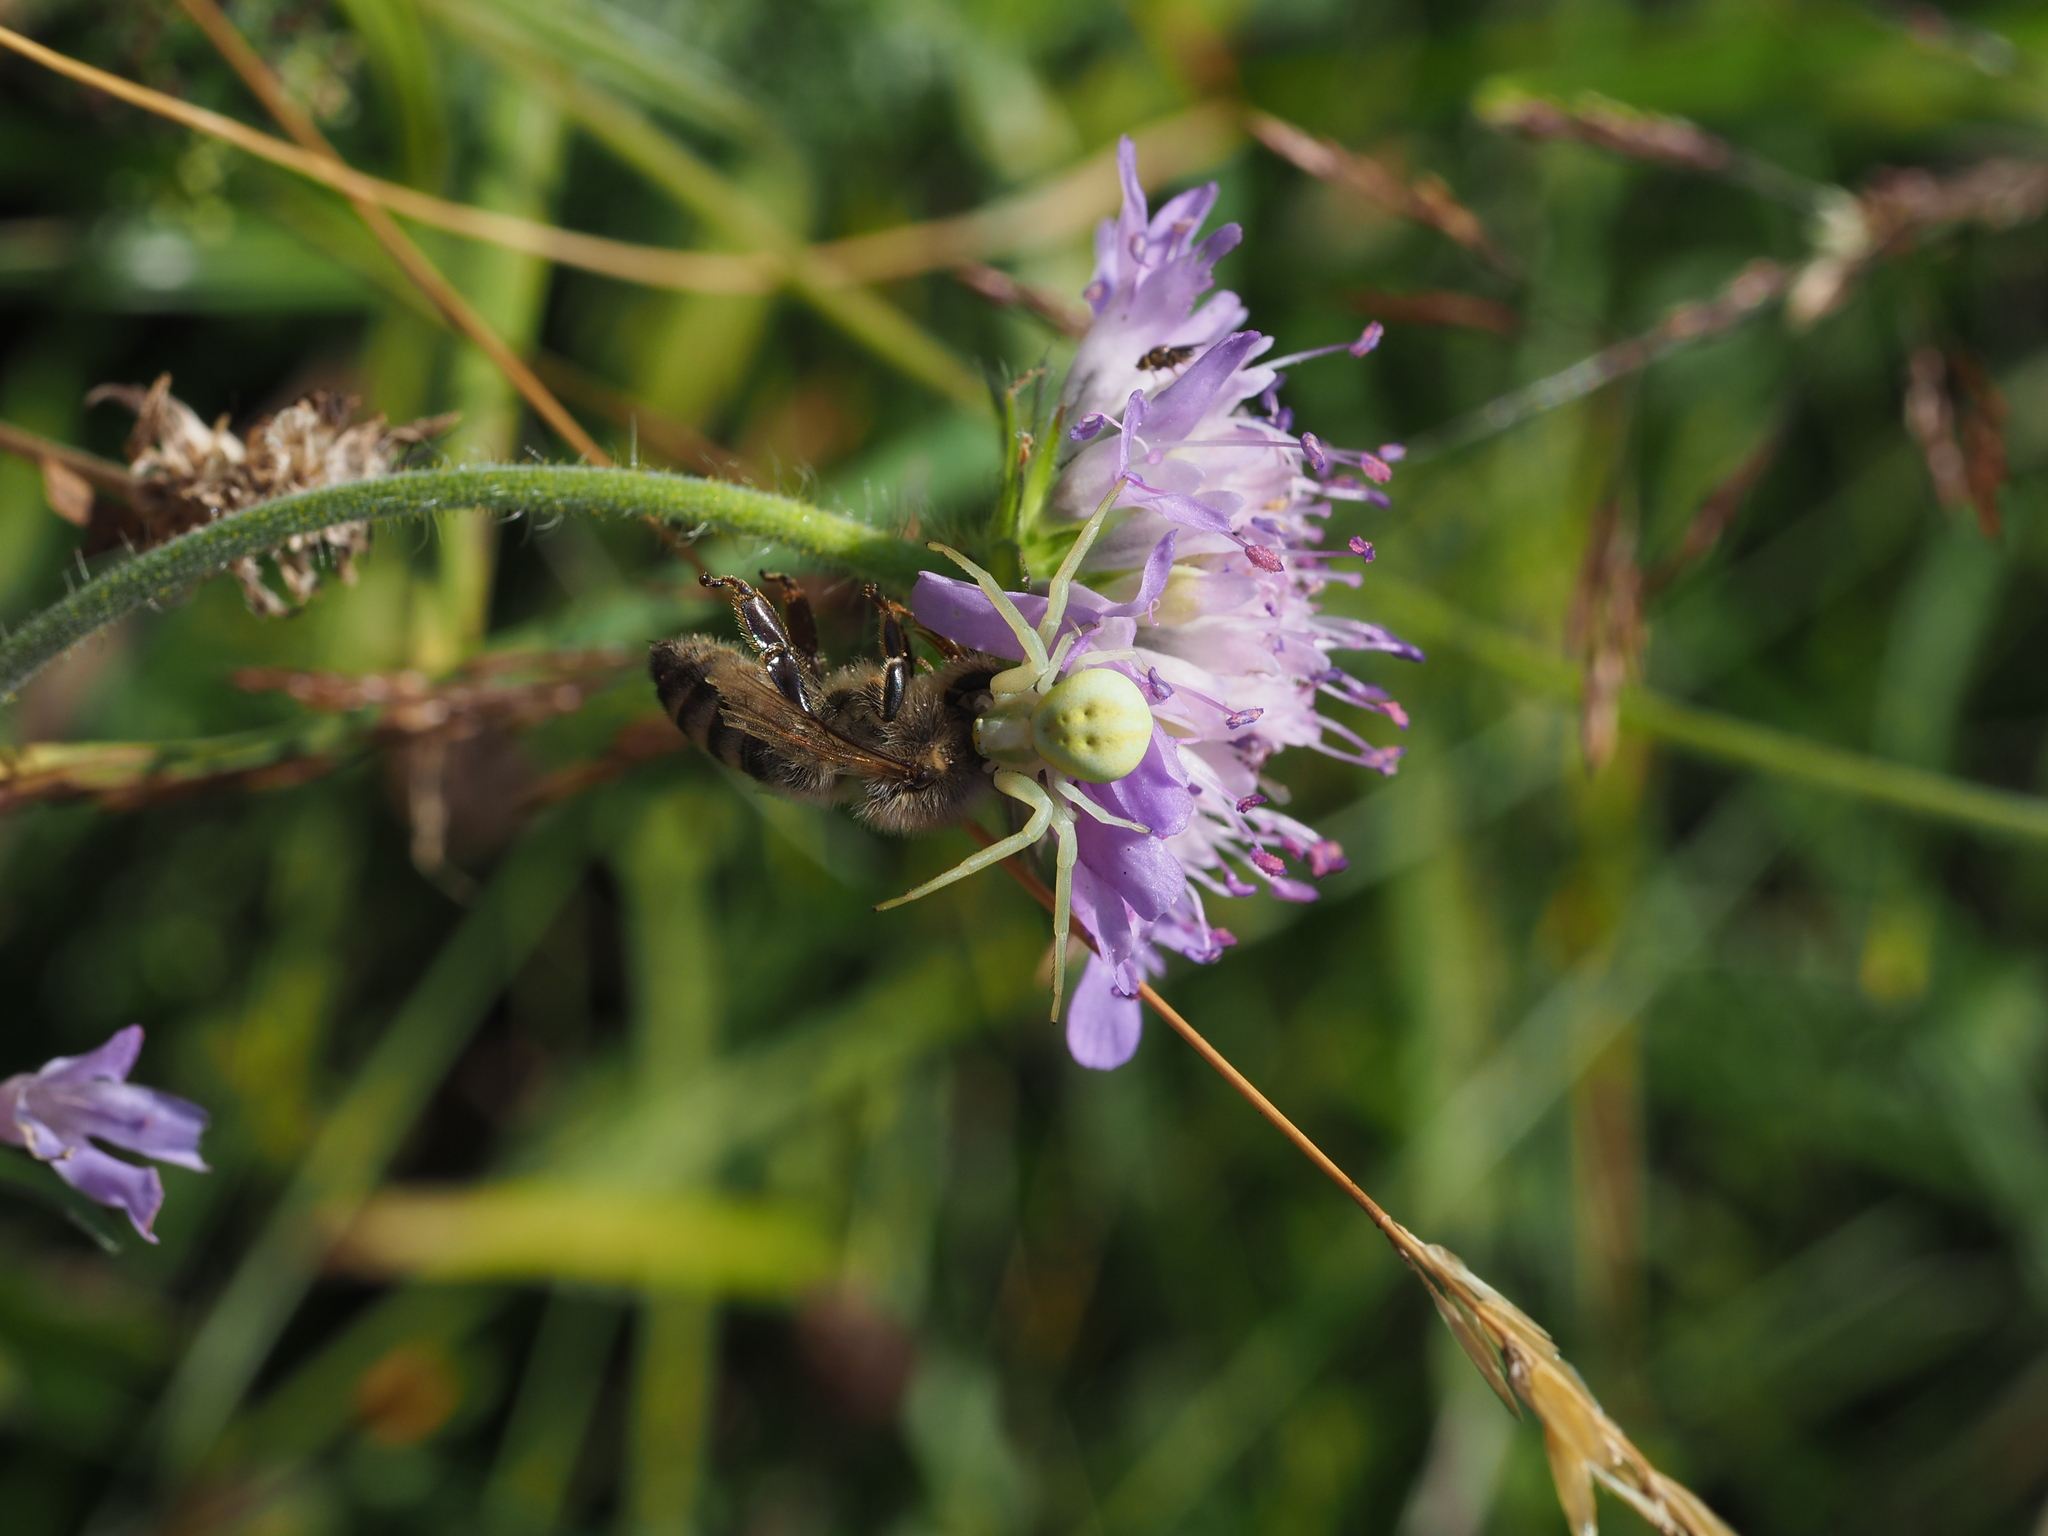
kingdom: Animalia
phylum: Arthropoda
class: Arachnida
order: Araneae
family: Thomisidae
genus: Misumena
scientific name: Misumena vatia
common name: Goldenrod crab spider
